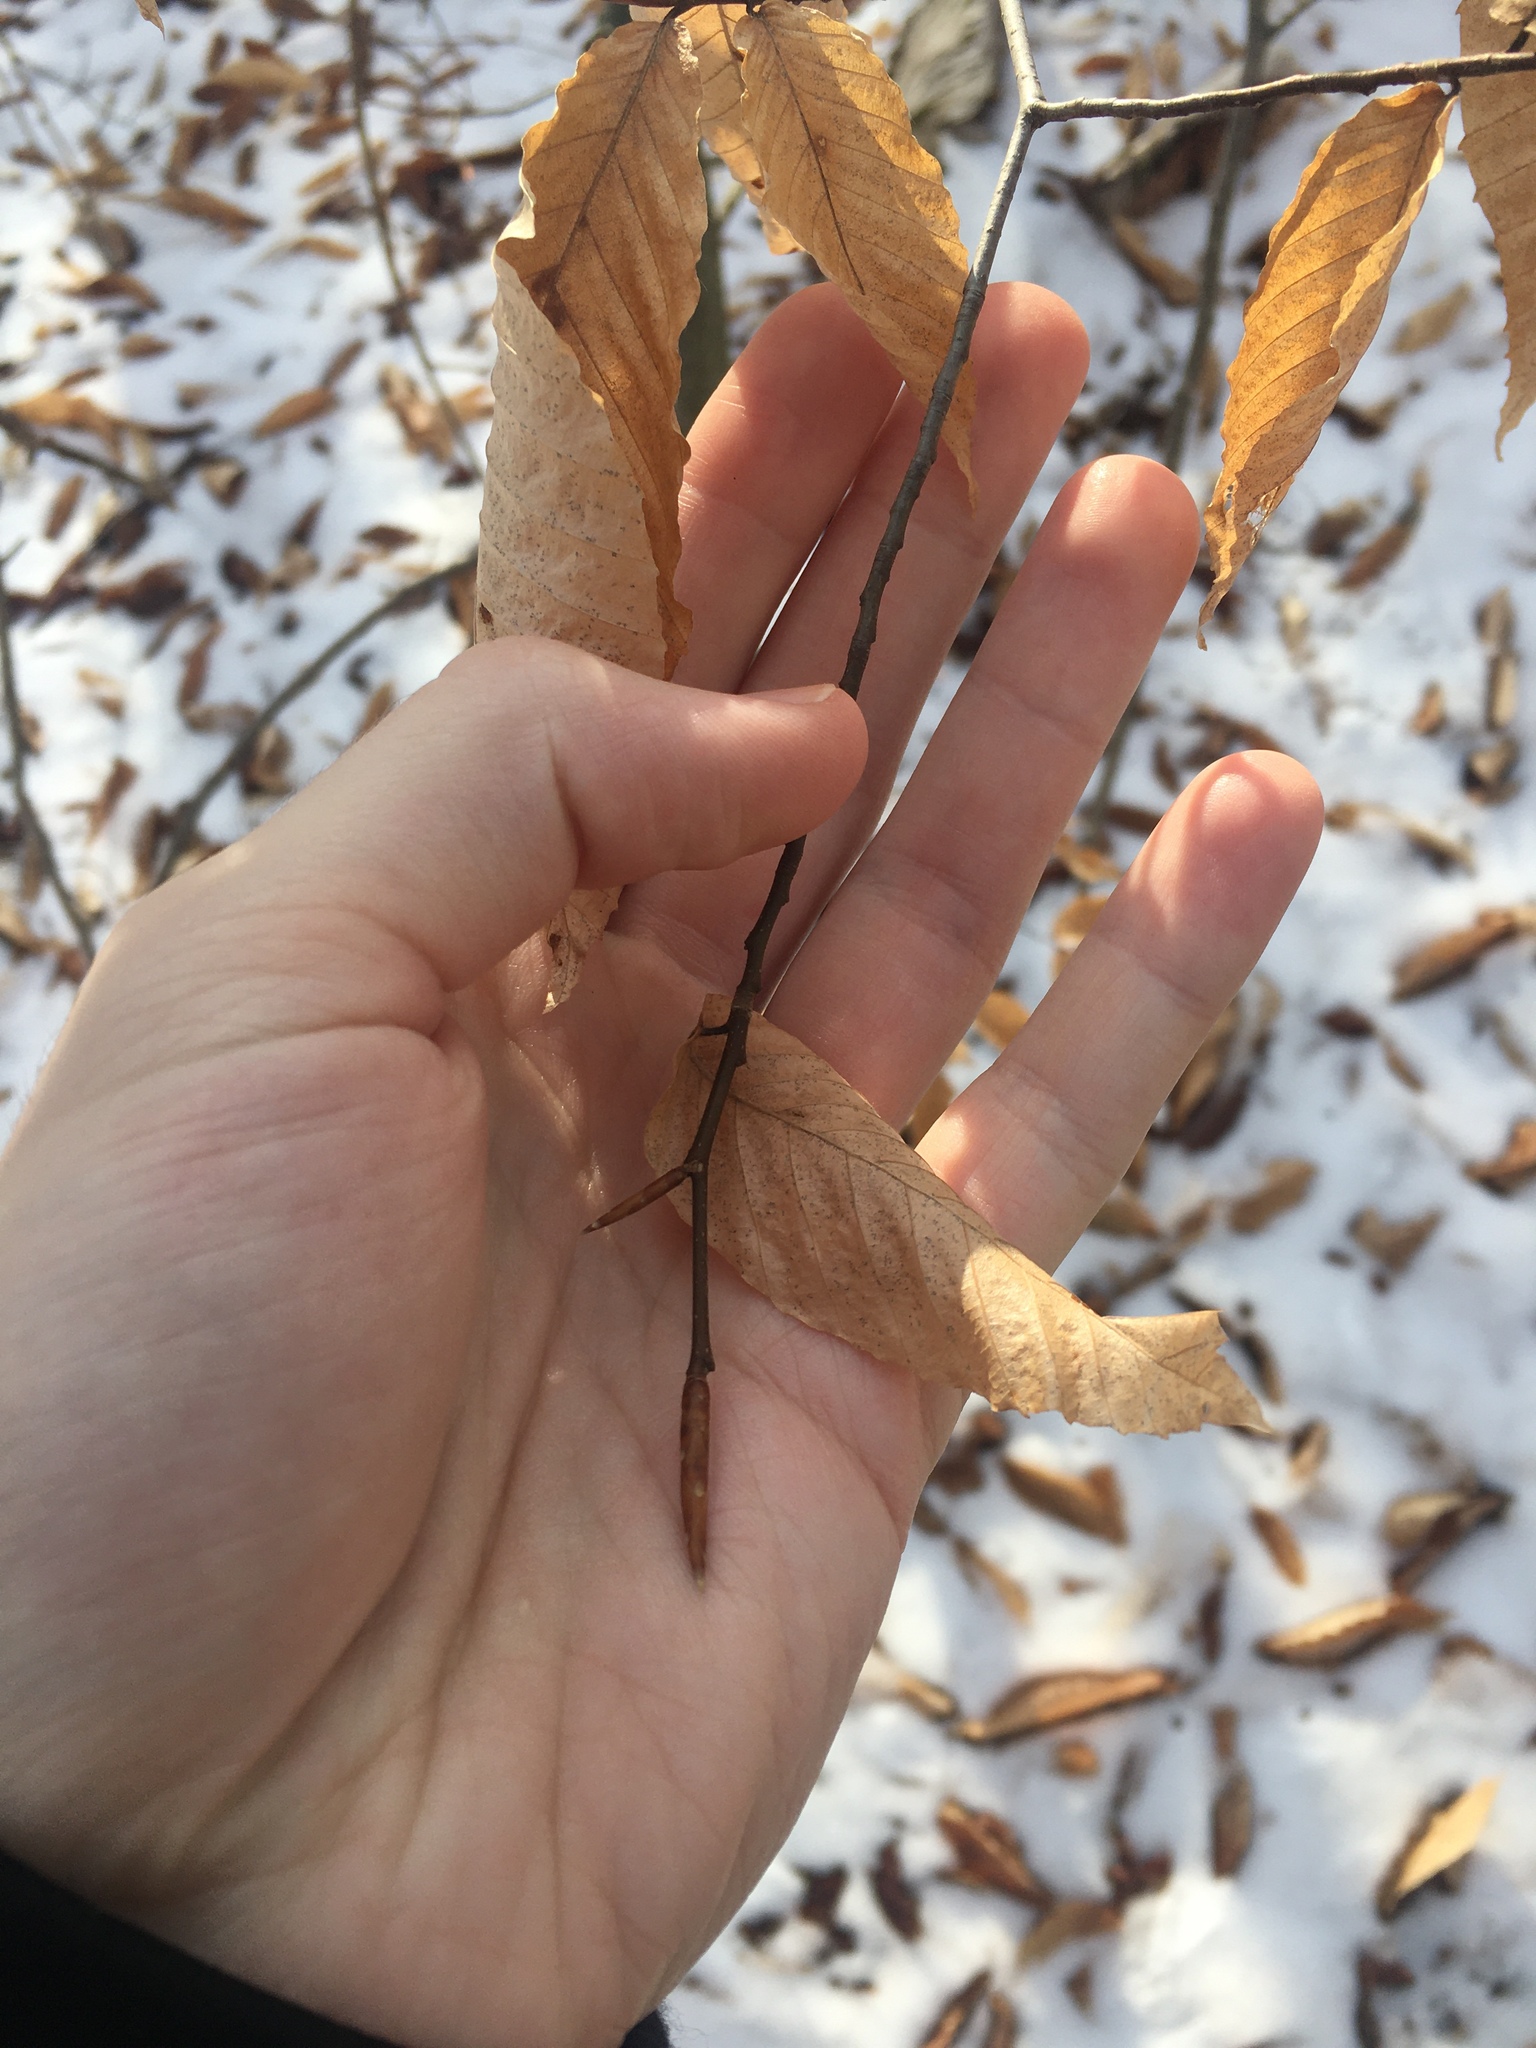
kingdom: Plantae
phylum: Tracheophyta
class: Magnoliopsida
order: Fagales
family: Fagaceae
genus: Fagus
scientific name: Fagus grandifolia
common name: American beech
